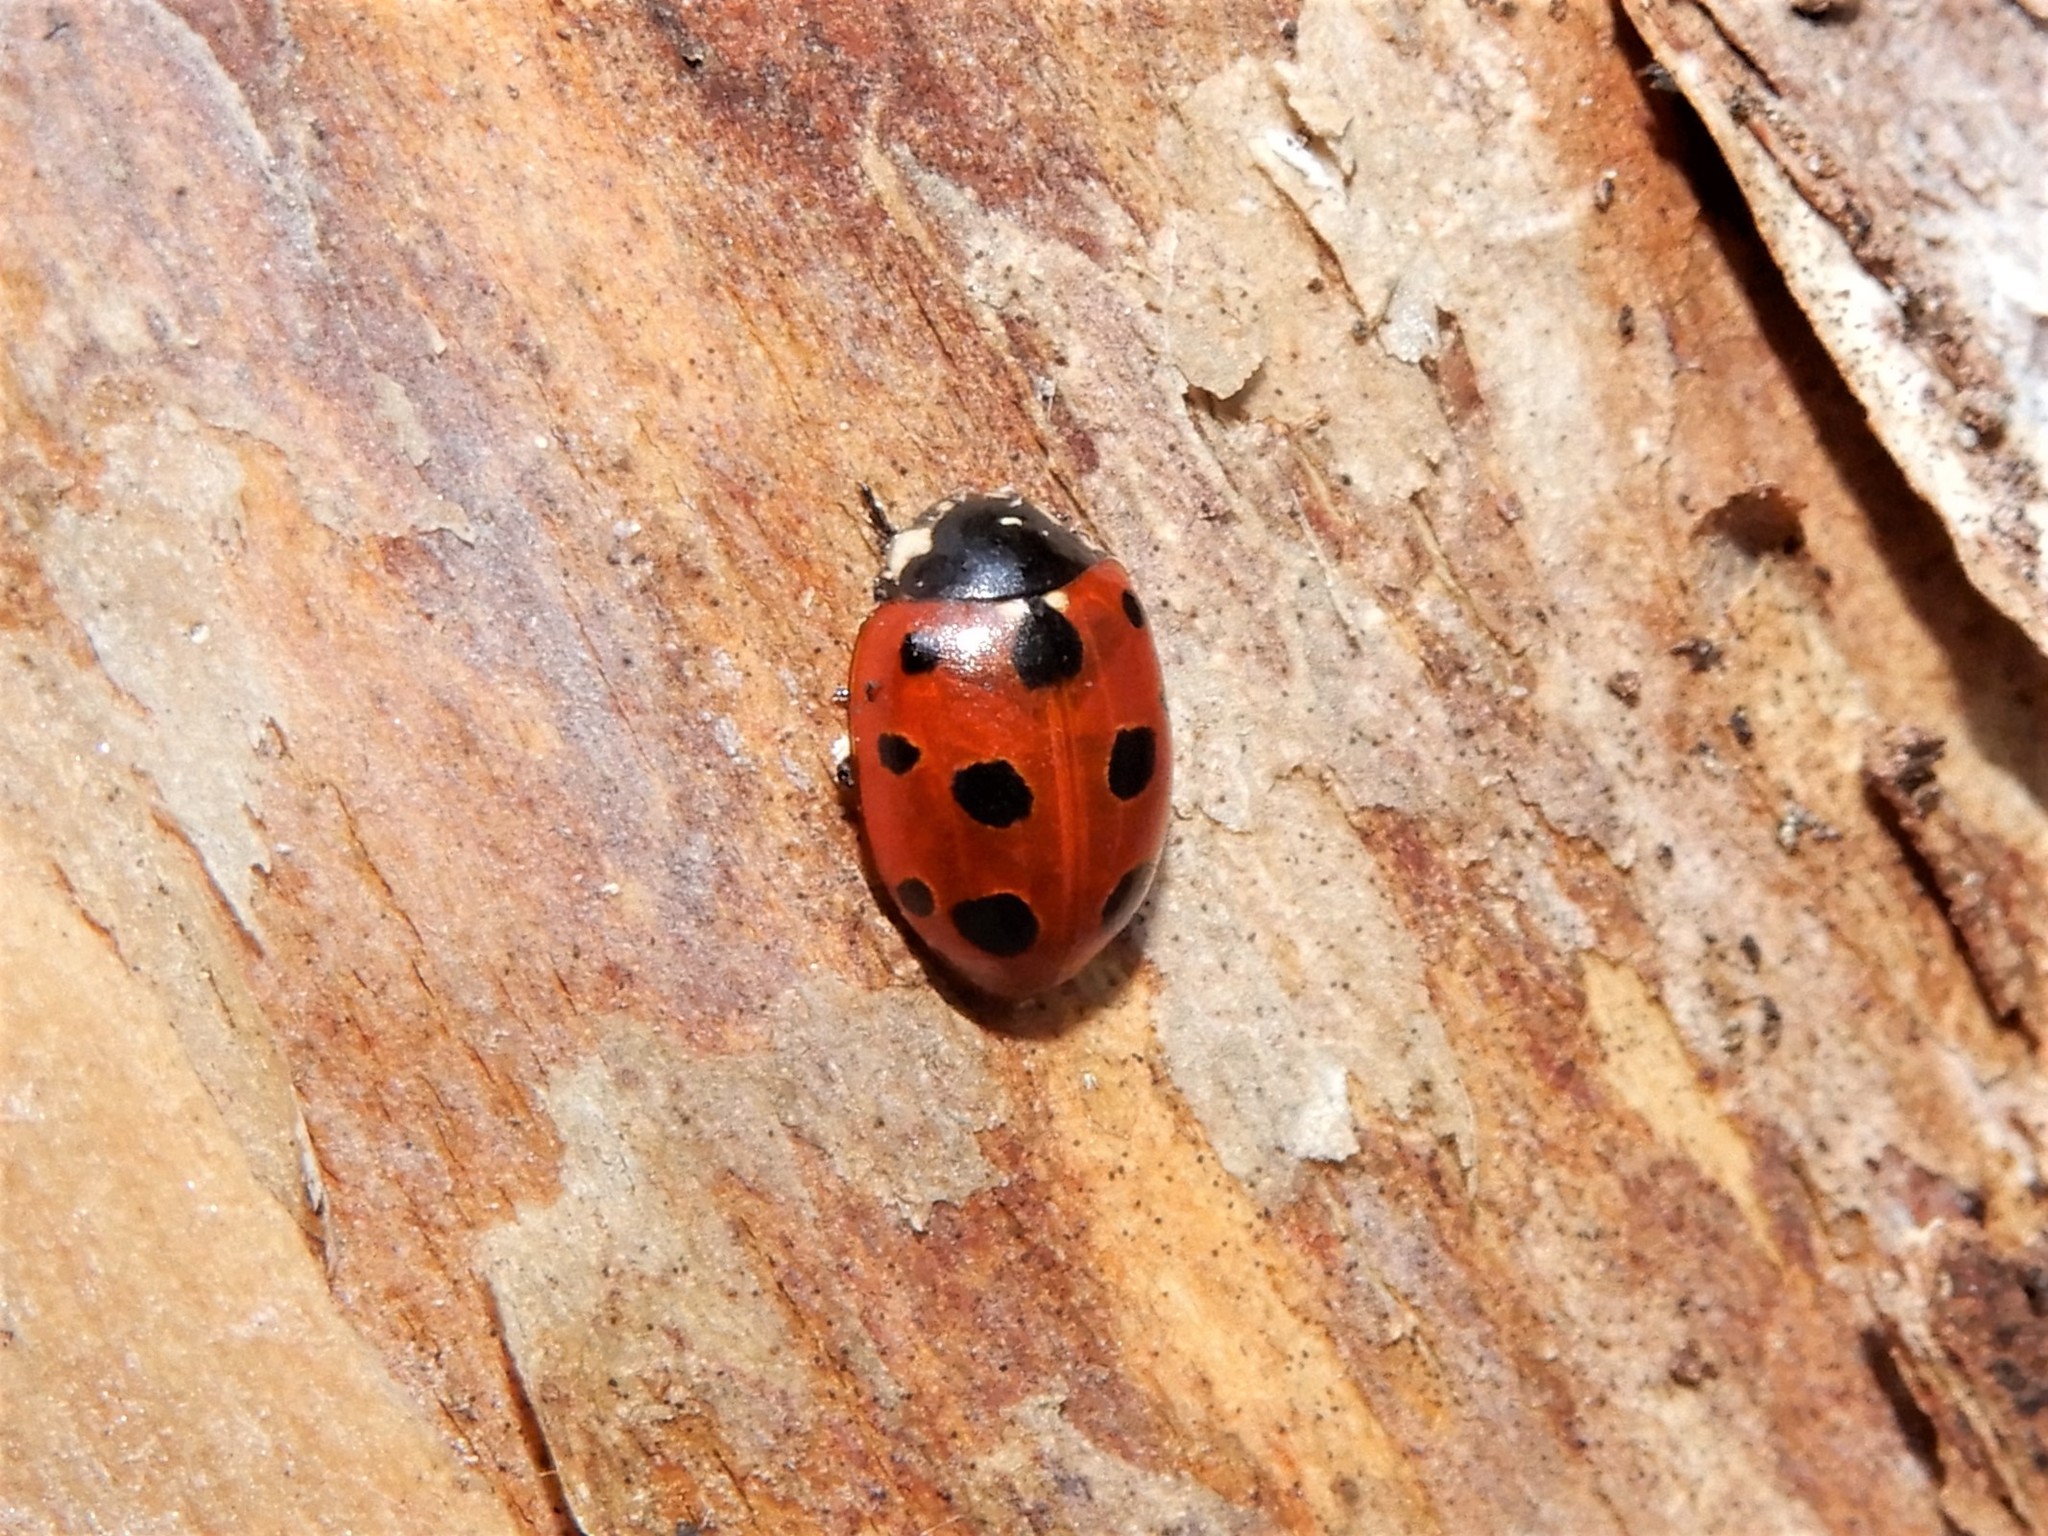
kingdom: Animalia
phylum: Arthropoda
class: Insecta
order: Coleoptera
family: Coccinellidae
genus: Coccinella
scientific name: Coccinella undecimpunctata
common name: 11-spot ladybird
